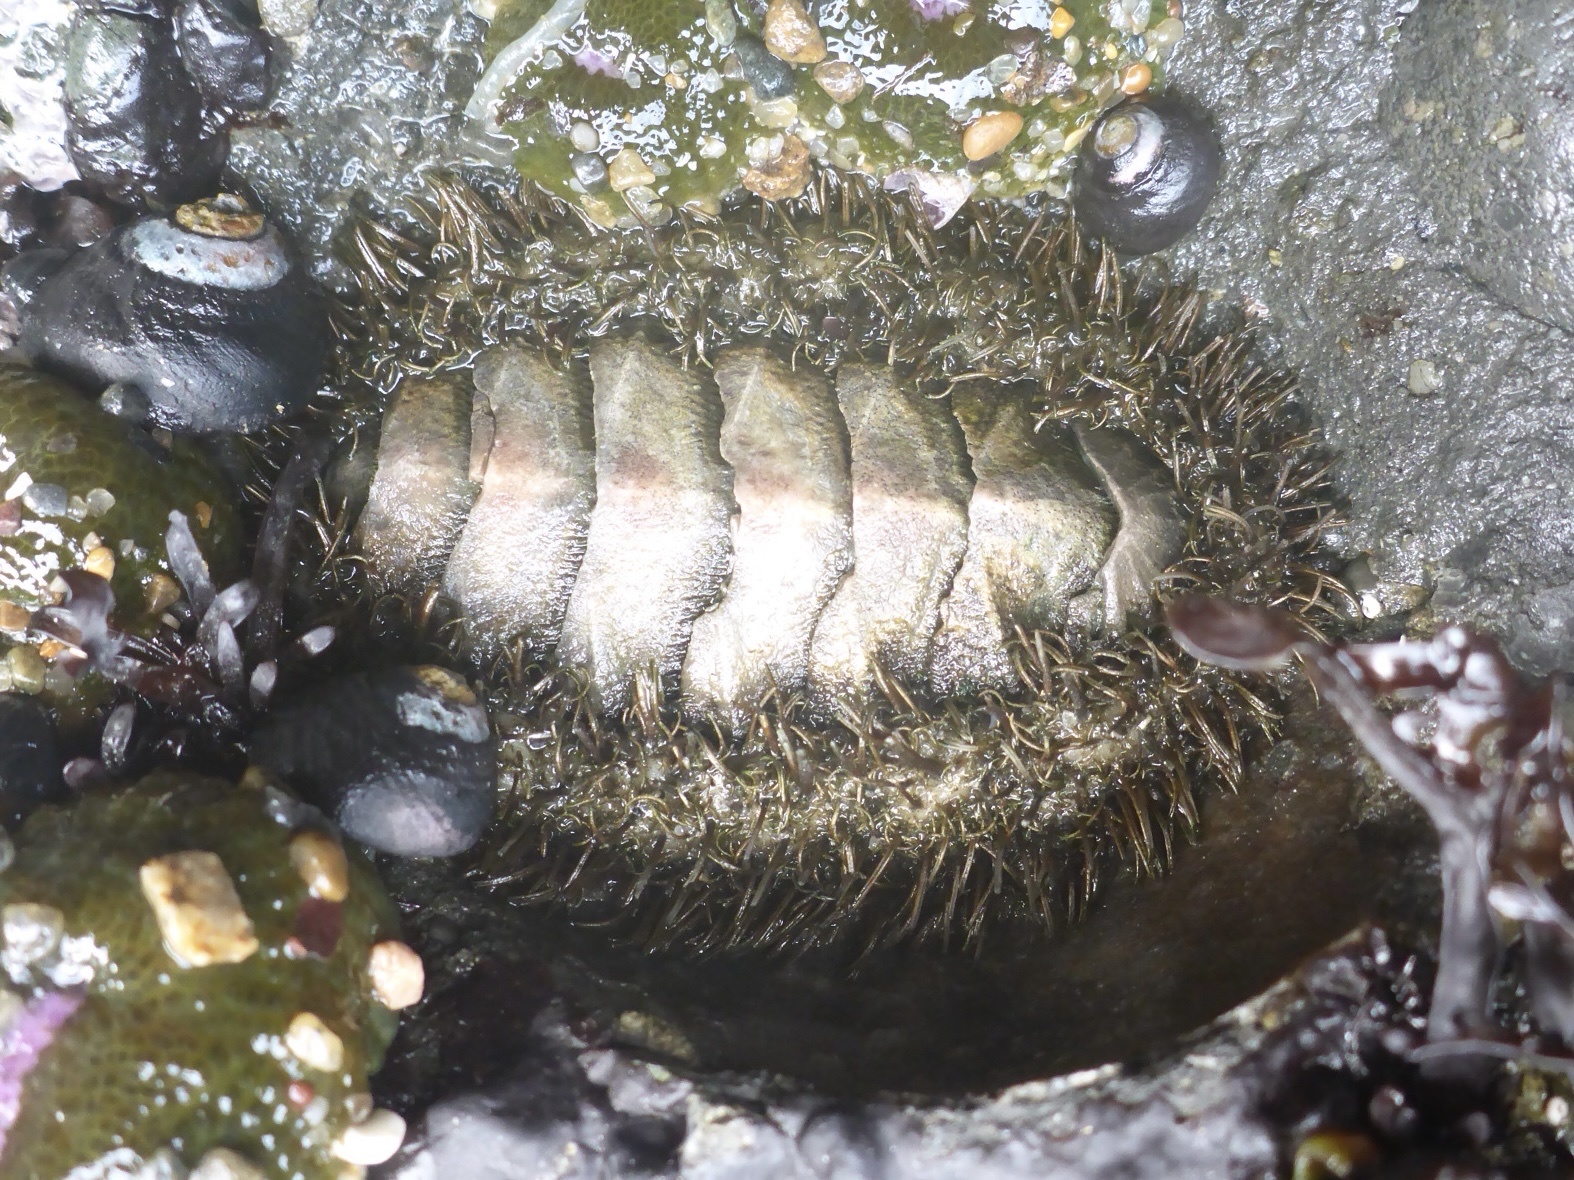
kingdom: Animalia
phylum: Mollusca
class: Polyplacophora
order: Chitonida
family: Mopaliidae
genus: Mopalia
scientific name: Mopalia muscosa
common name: Mossy chiton
